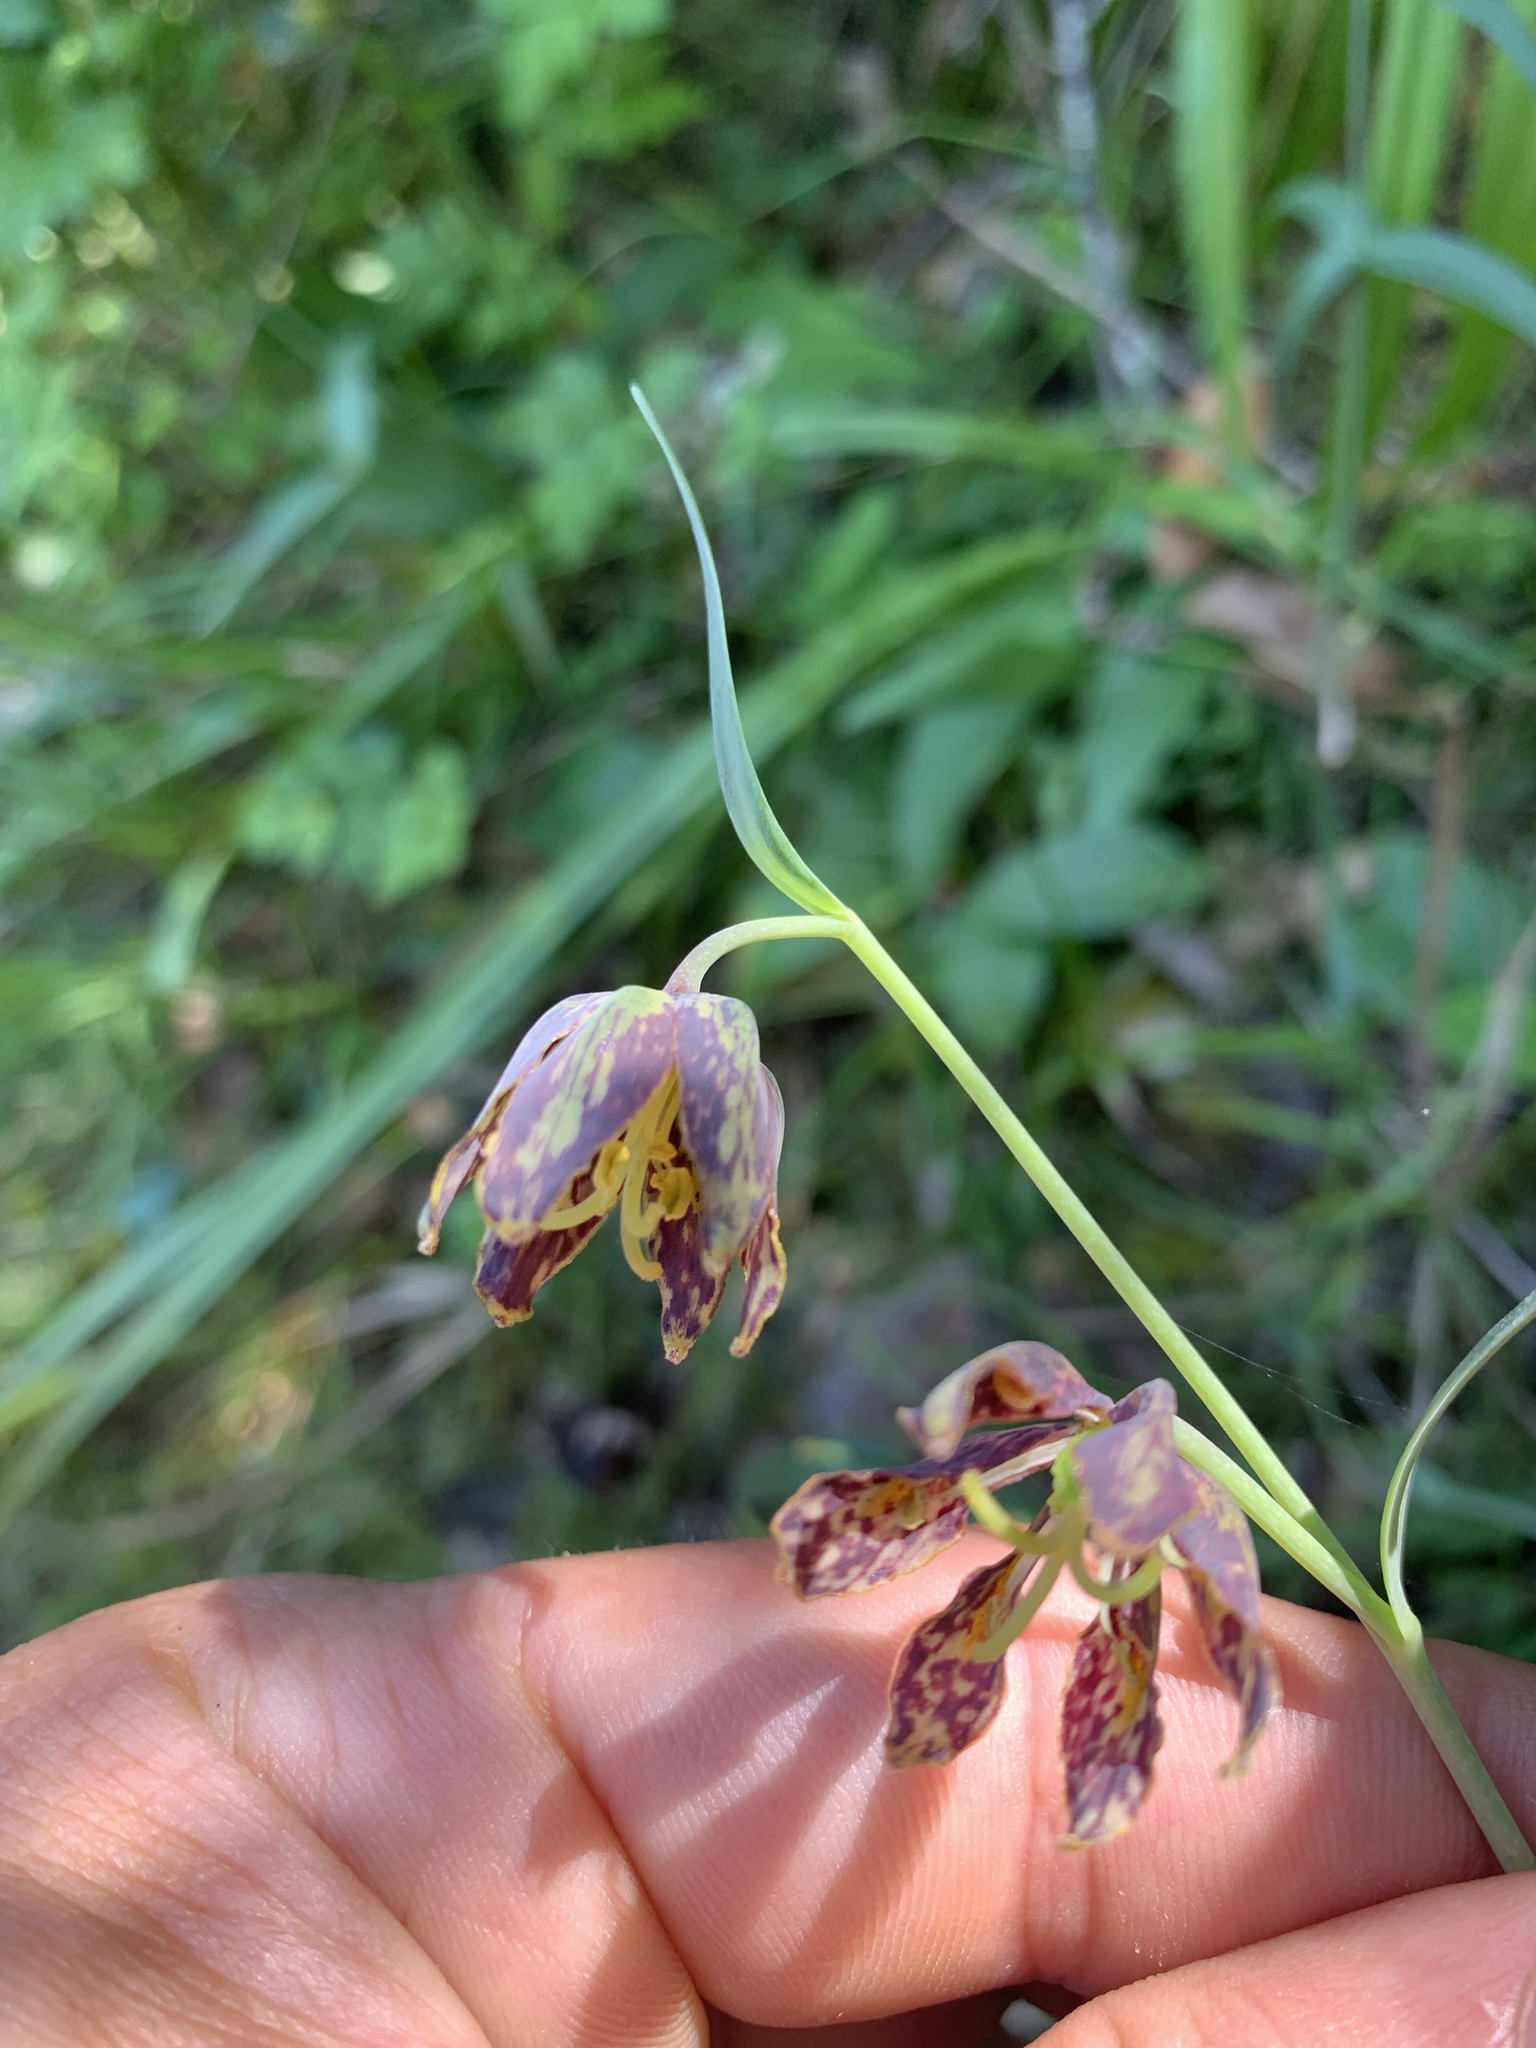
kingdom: Plantae
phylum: Tracheophyta
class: Liliopsida
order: Liliales
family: Liliaceae
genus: Fritillaria
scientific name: Fritillaria affinis
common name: Ojai fritillary
